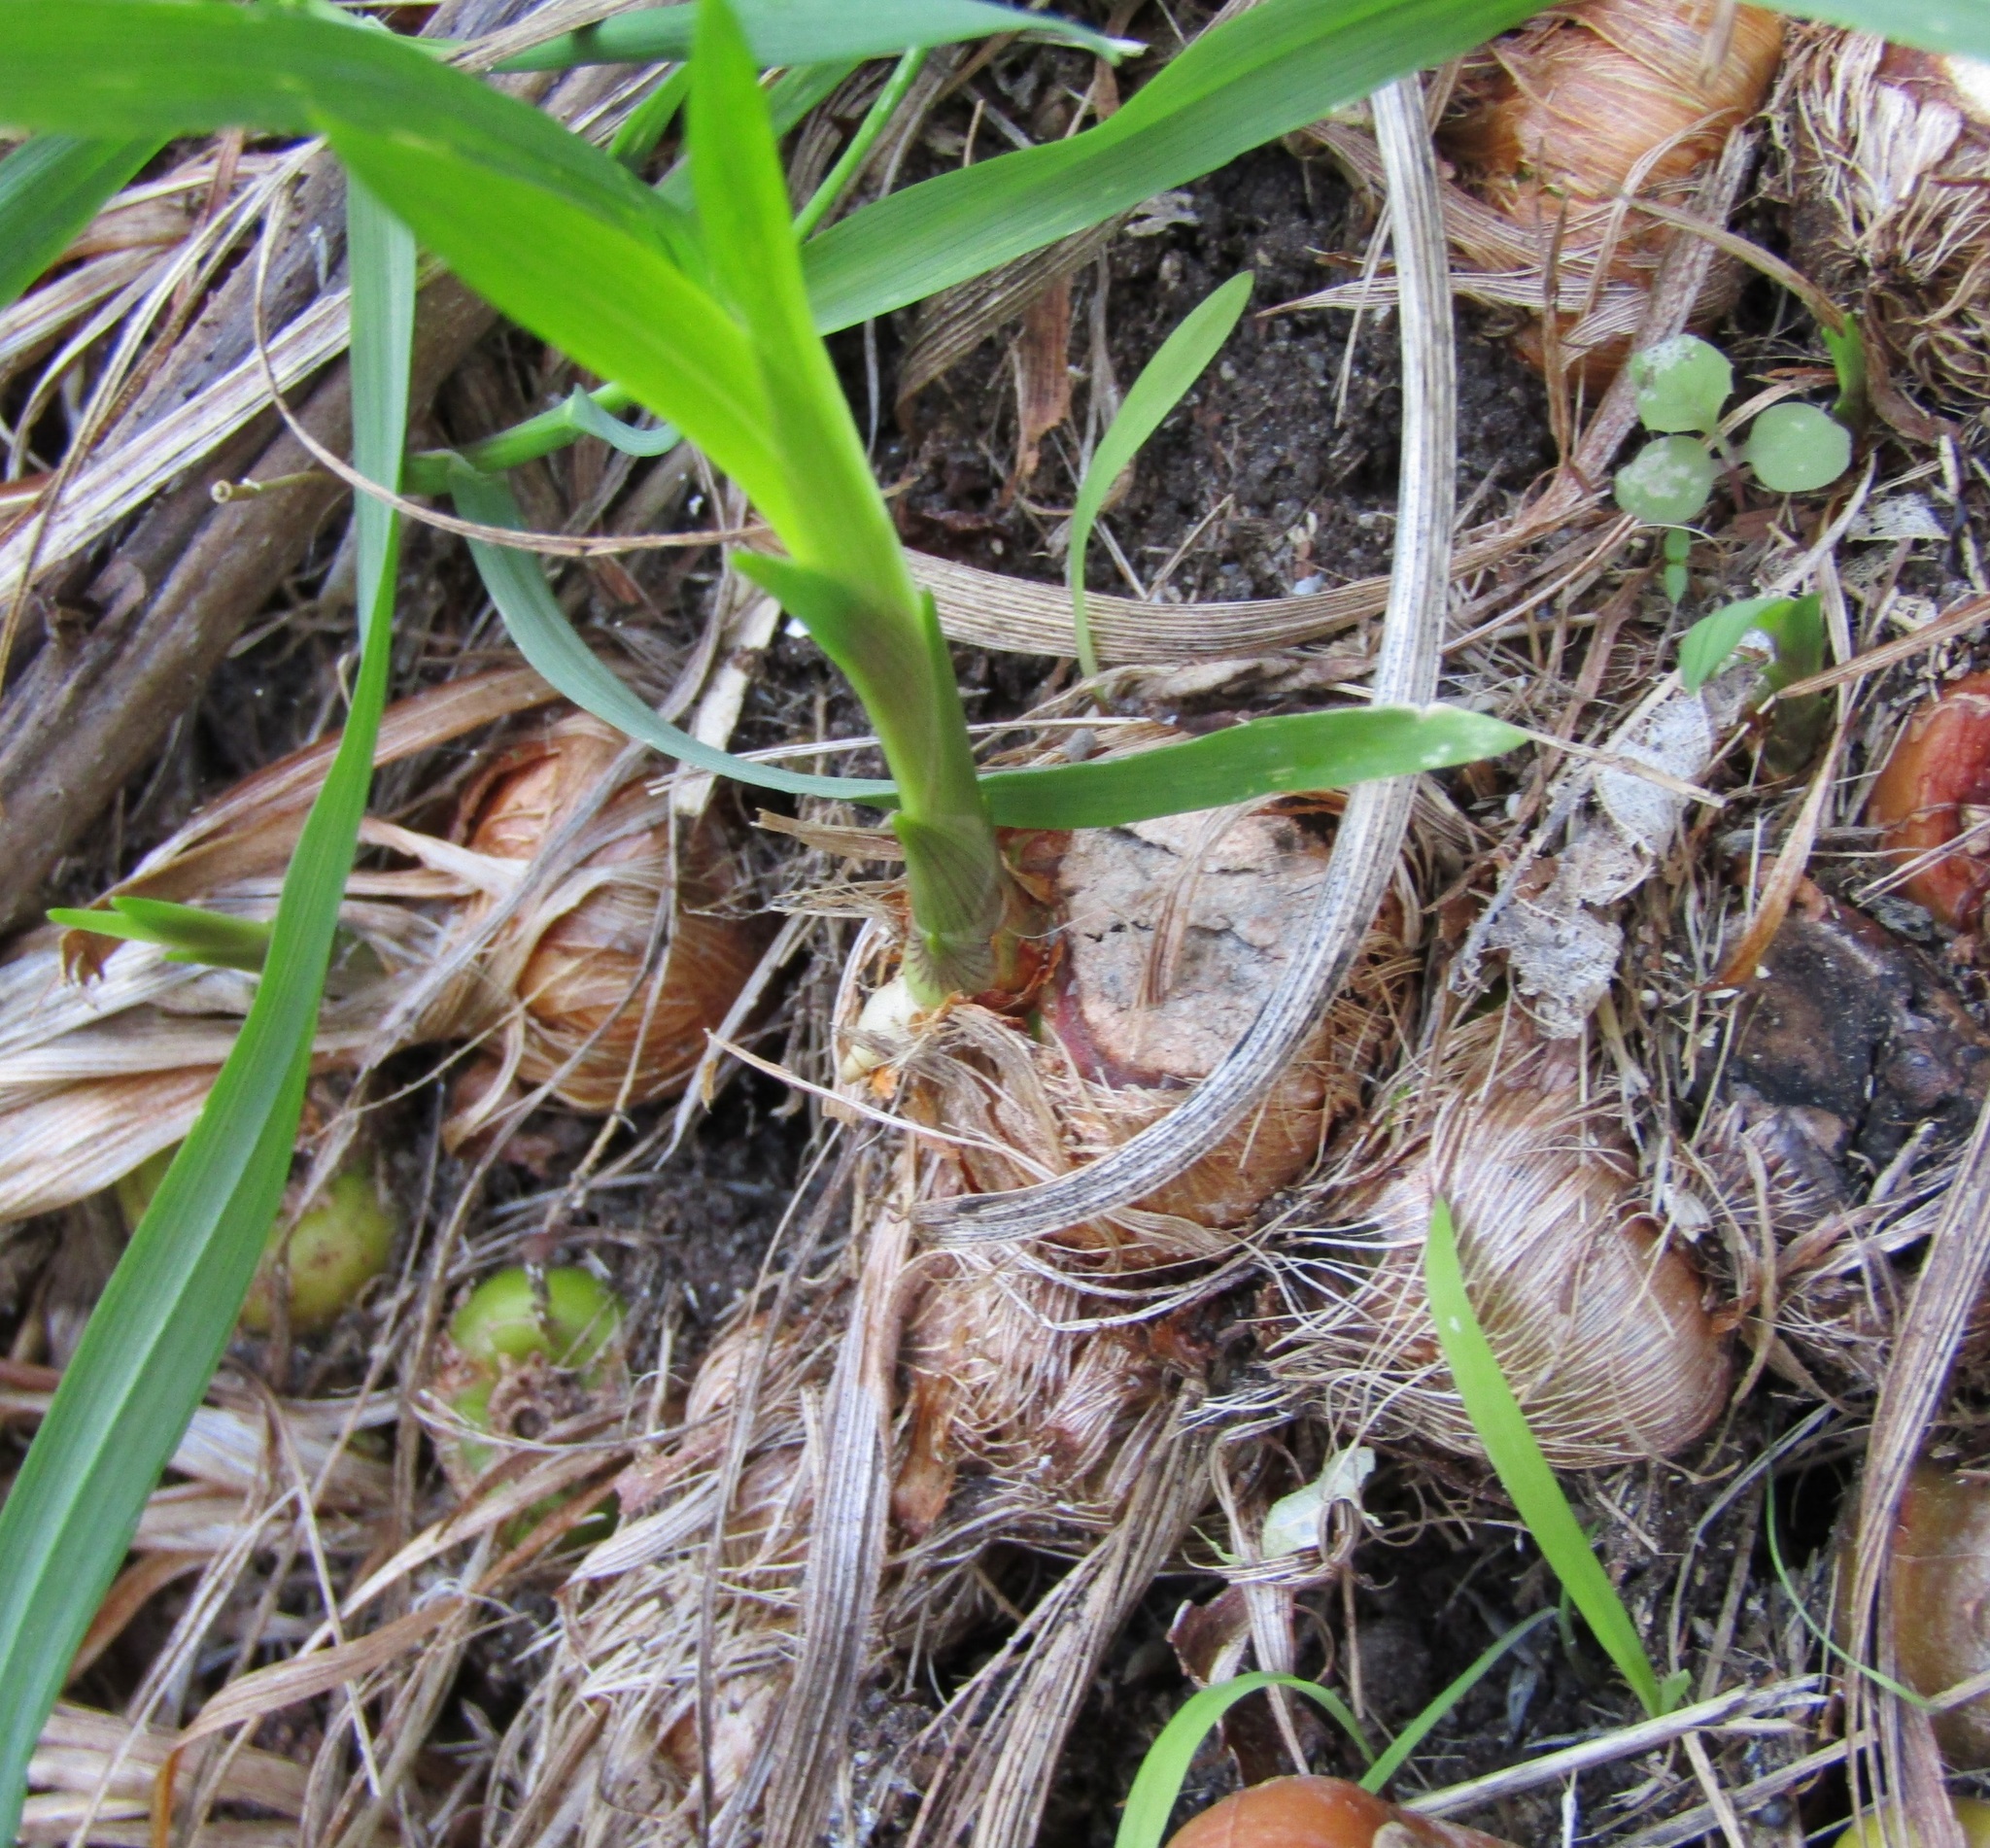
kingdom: Plantae
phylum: Tracheophyta
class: Liliopsida
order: Asparagales
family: Iridaceae
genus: Crocosmia
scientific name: Crocosmia crocosmiiflora
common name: Montbretia
